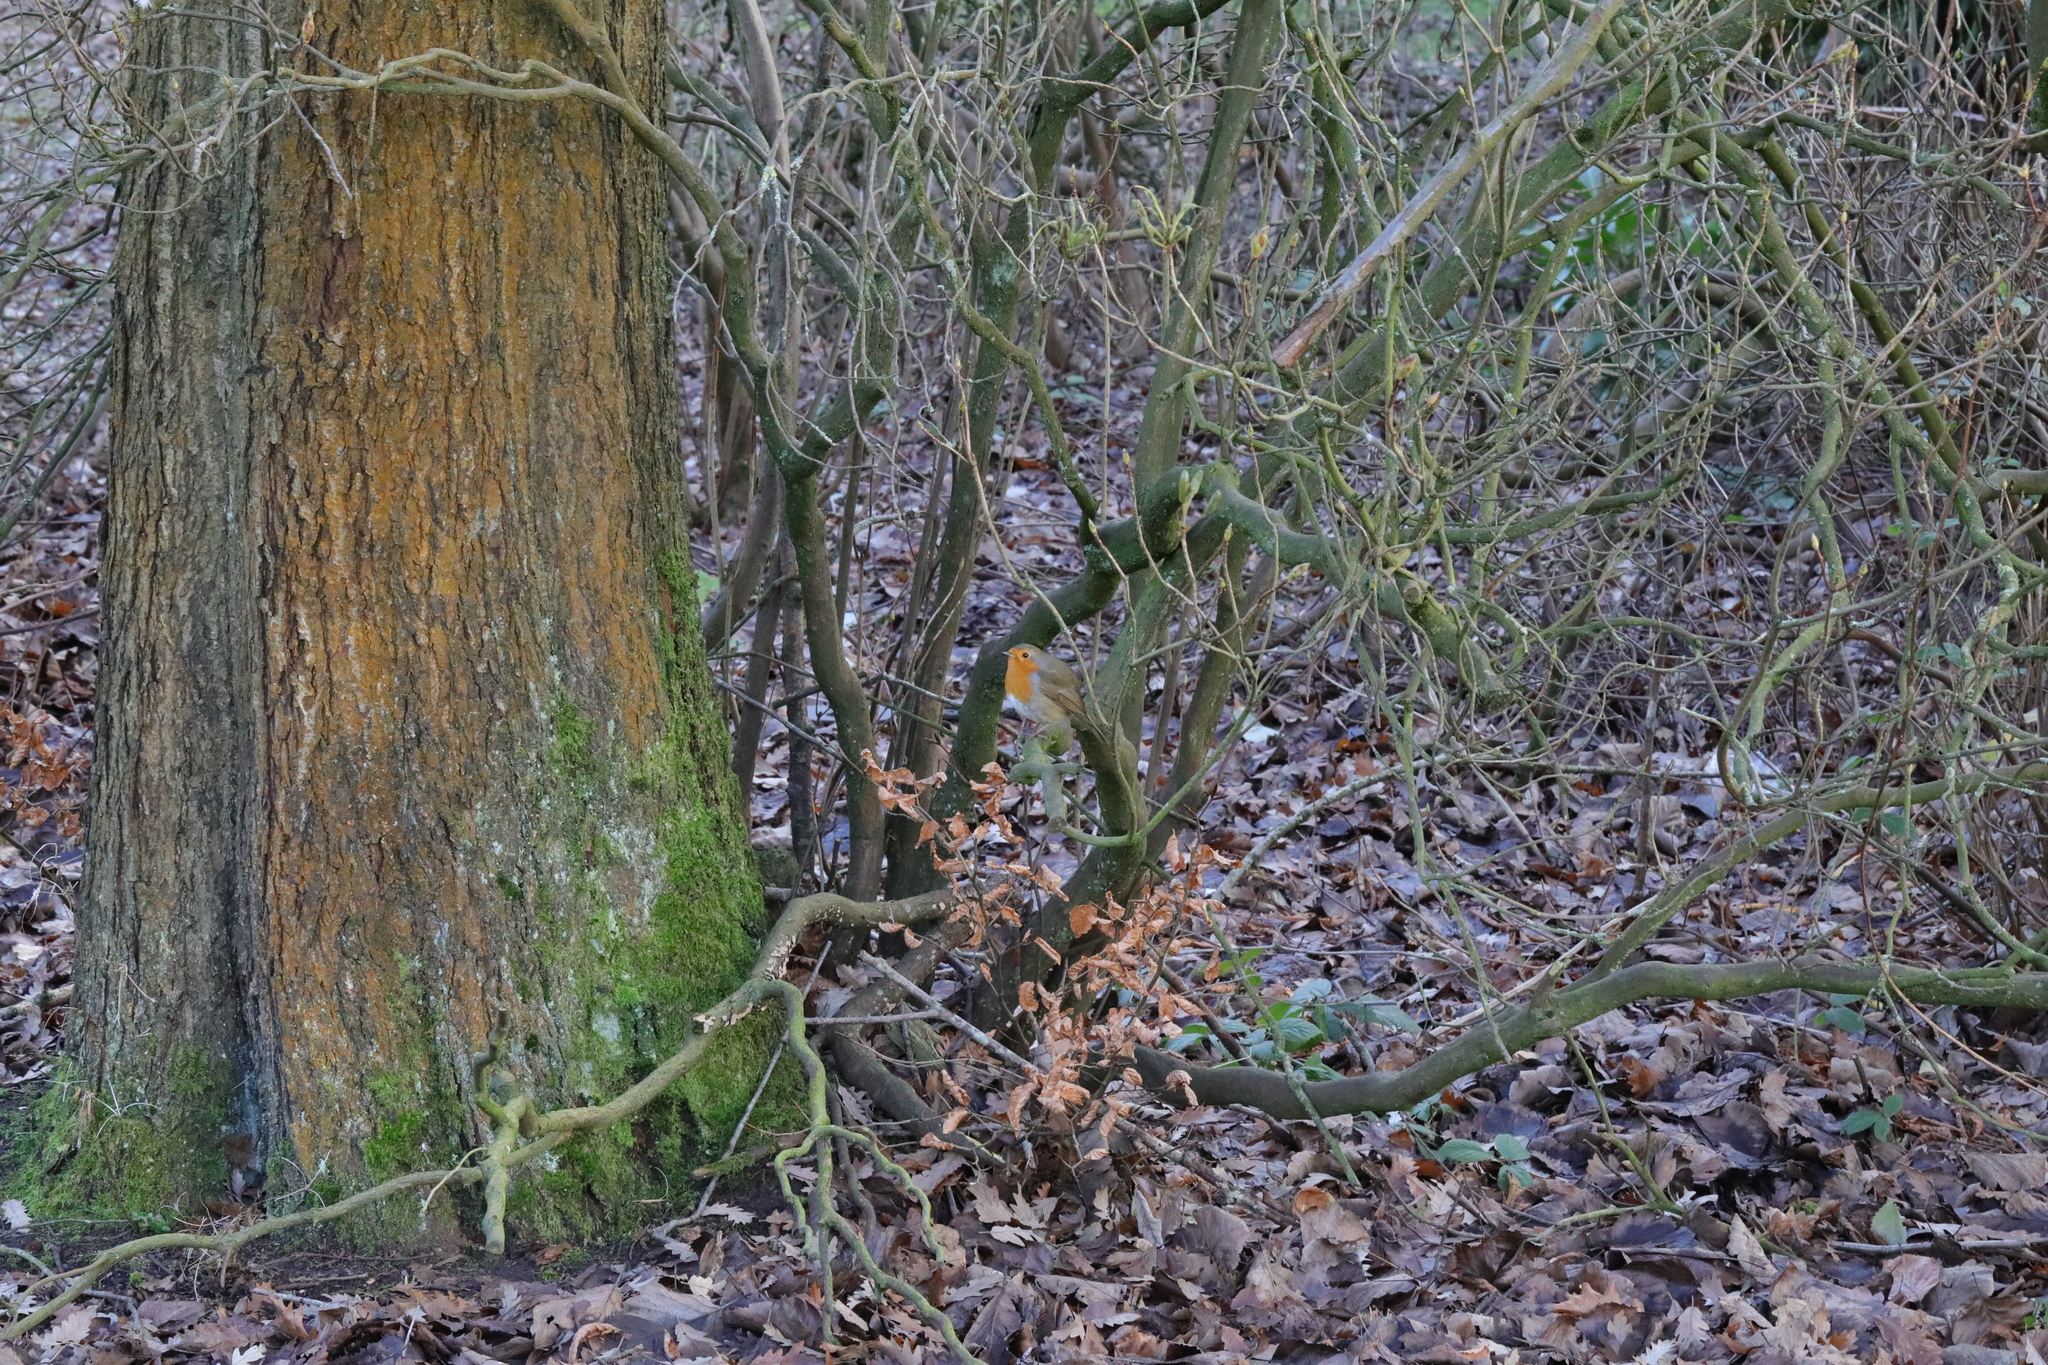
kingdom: Animalia
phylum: Chordata
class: Aves
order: Passeriformes
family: Muscicapidae
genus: Erithacus
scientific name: Erithacus rubecula
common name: European robin
